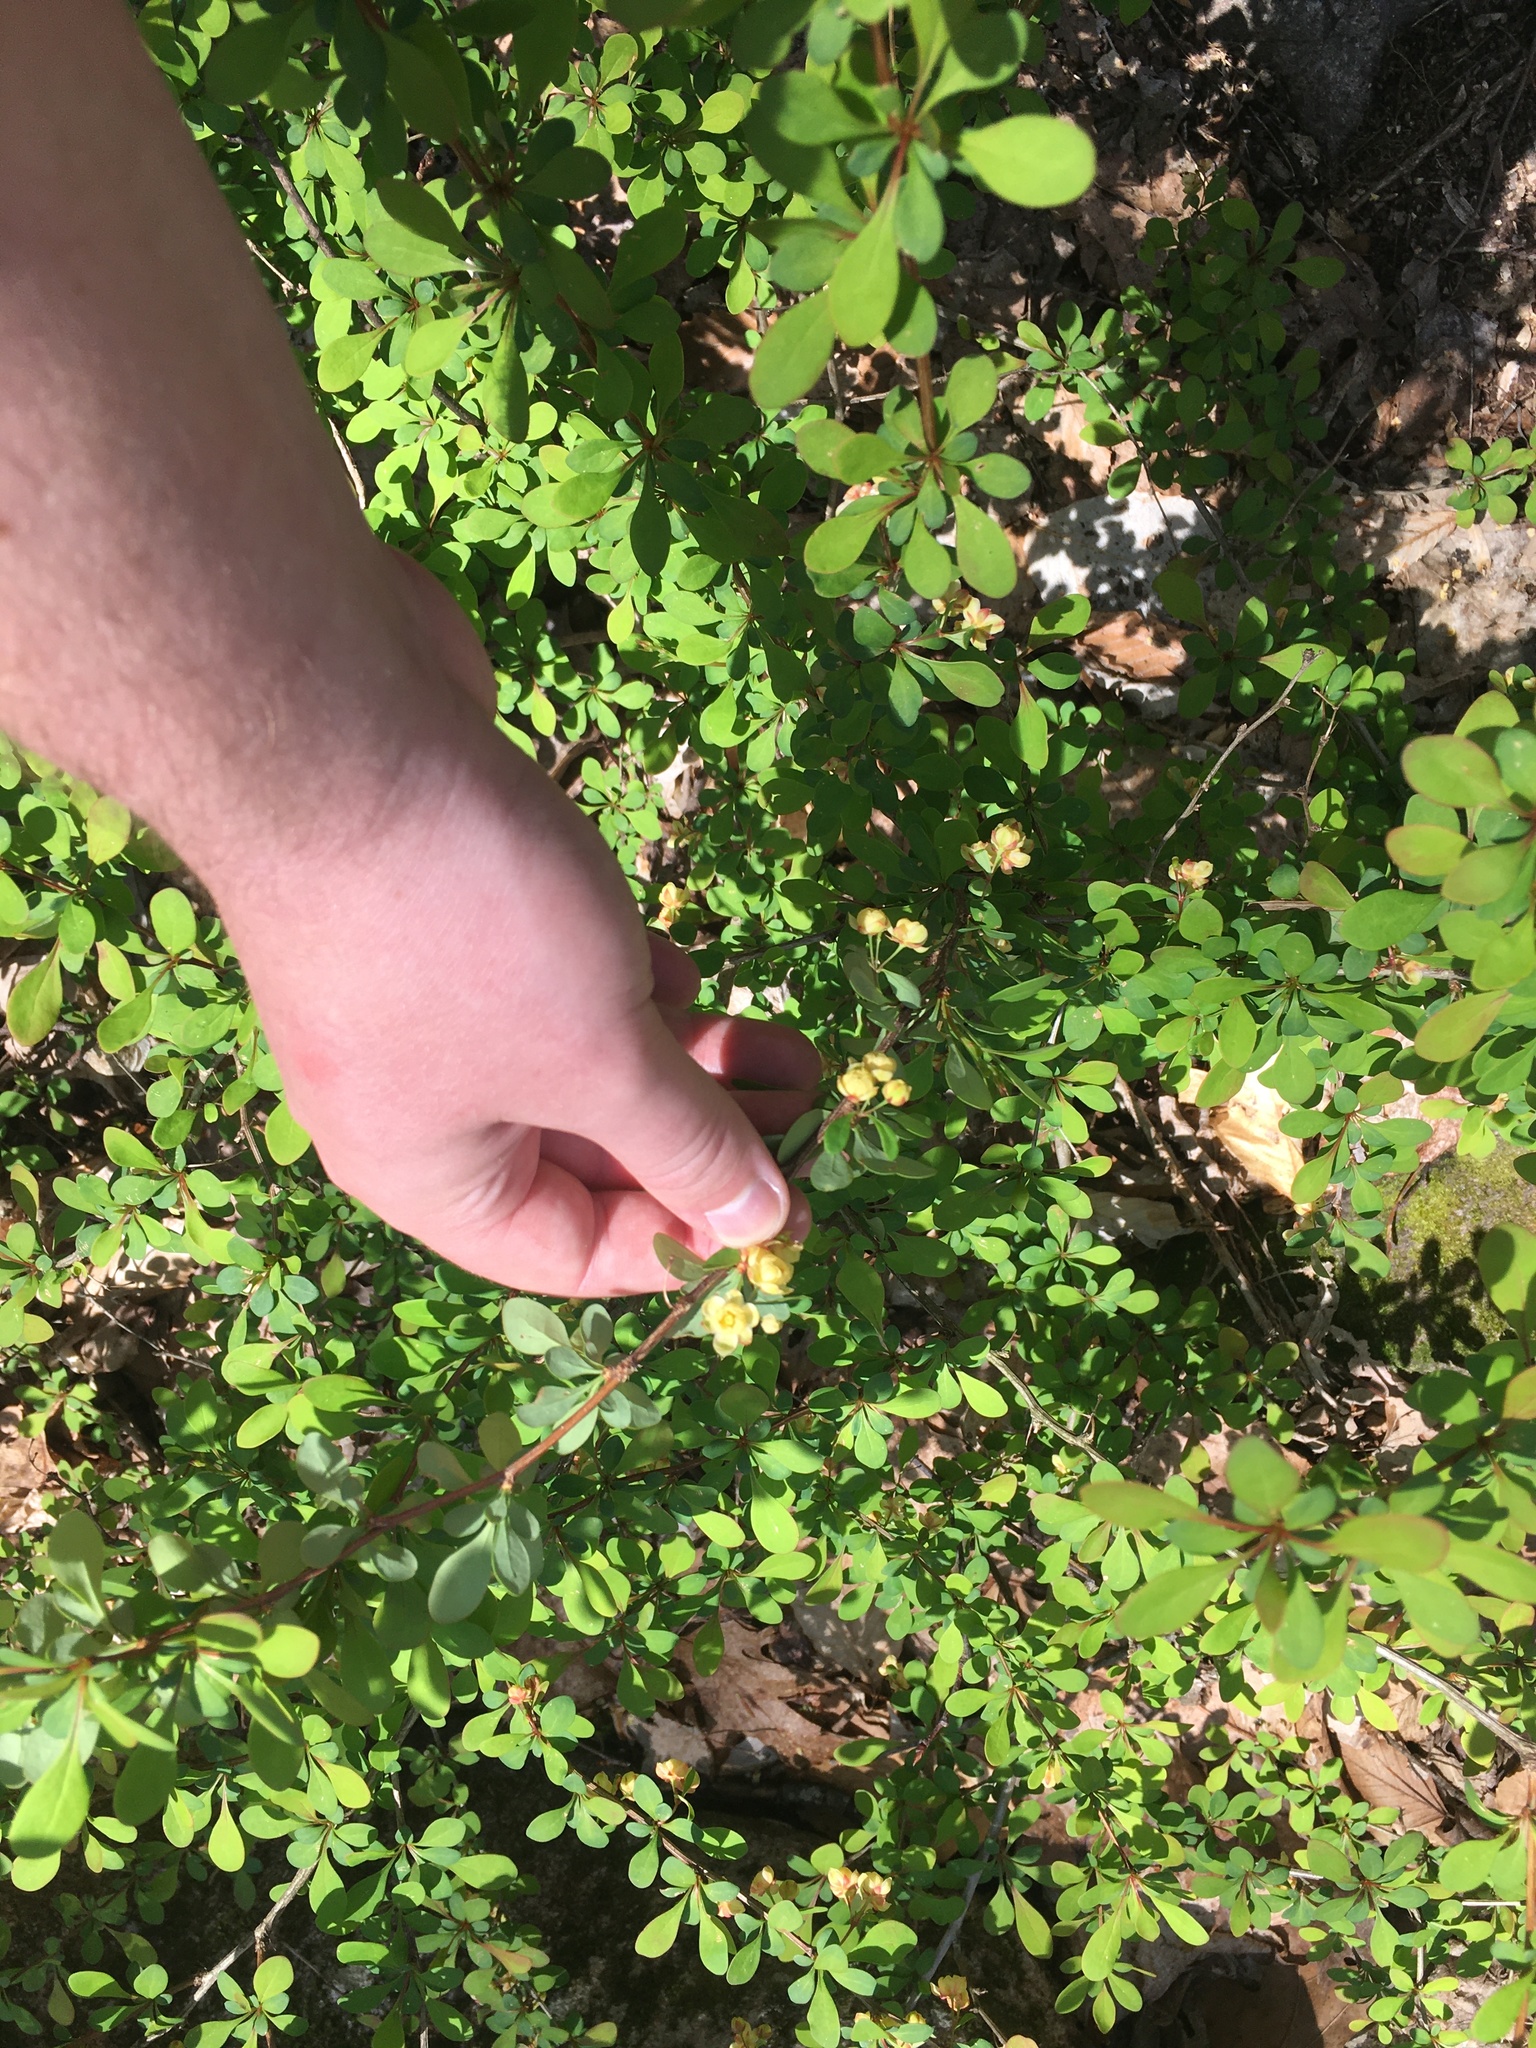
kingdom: Plantae
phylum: Tracheophyta
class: Magnoliopsida
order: Ranunculales
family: Berberidaceae
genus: Berberis
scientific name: Berberis thunbergii
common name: Japanese barberry
